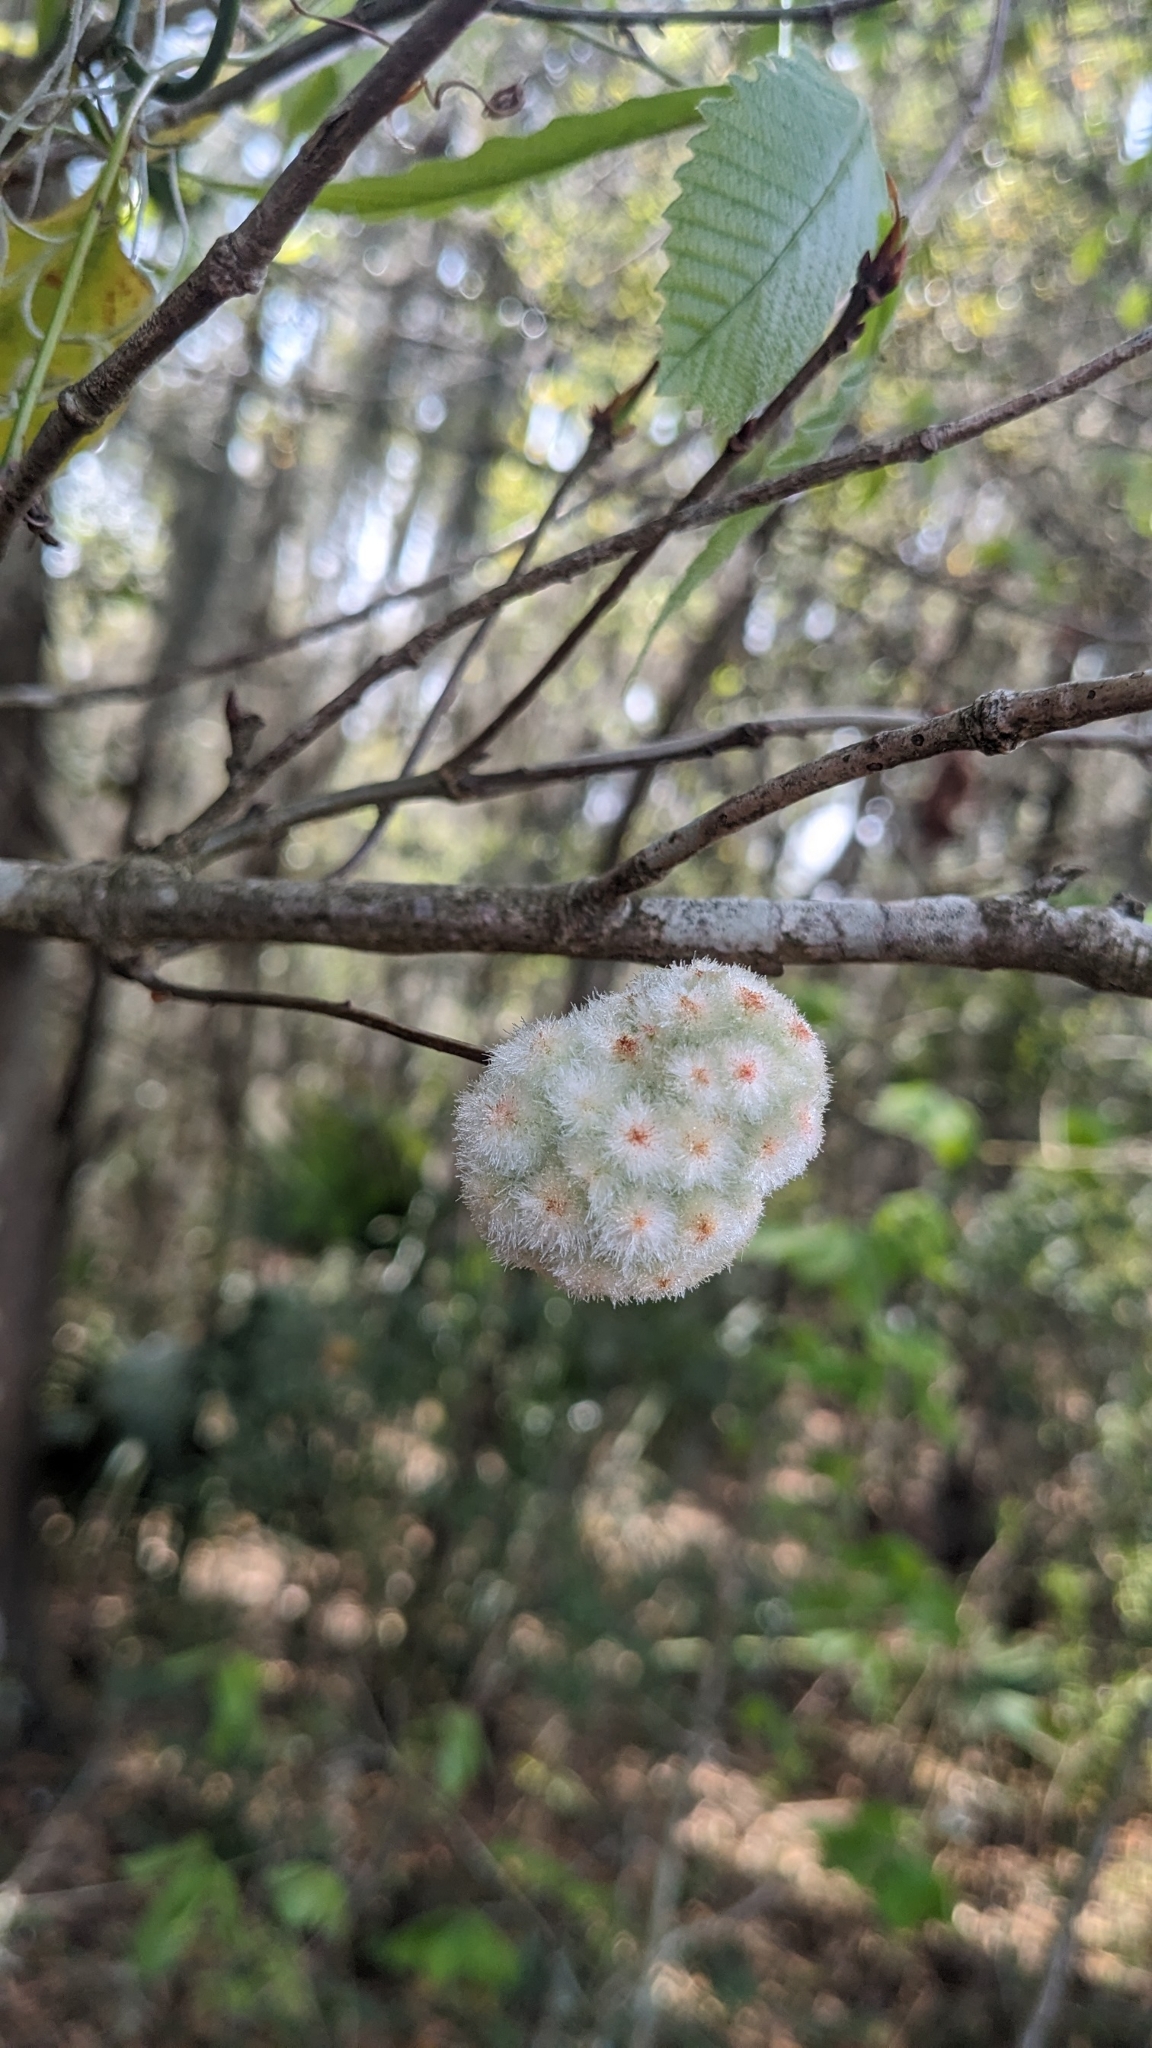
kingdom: Animalia
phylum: Arthropoda
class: Insecta
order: Hymenoptera
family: Cynipidae
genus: Callirhytis
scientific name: Callirhytis
